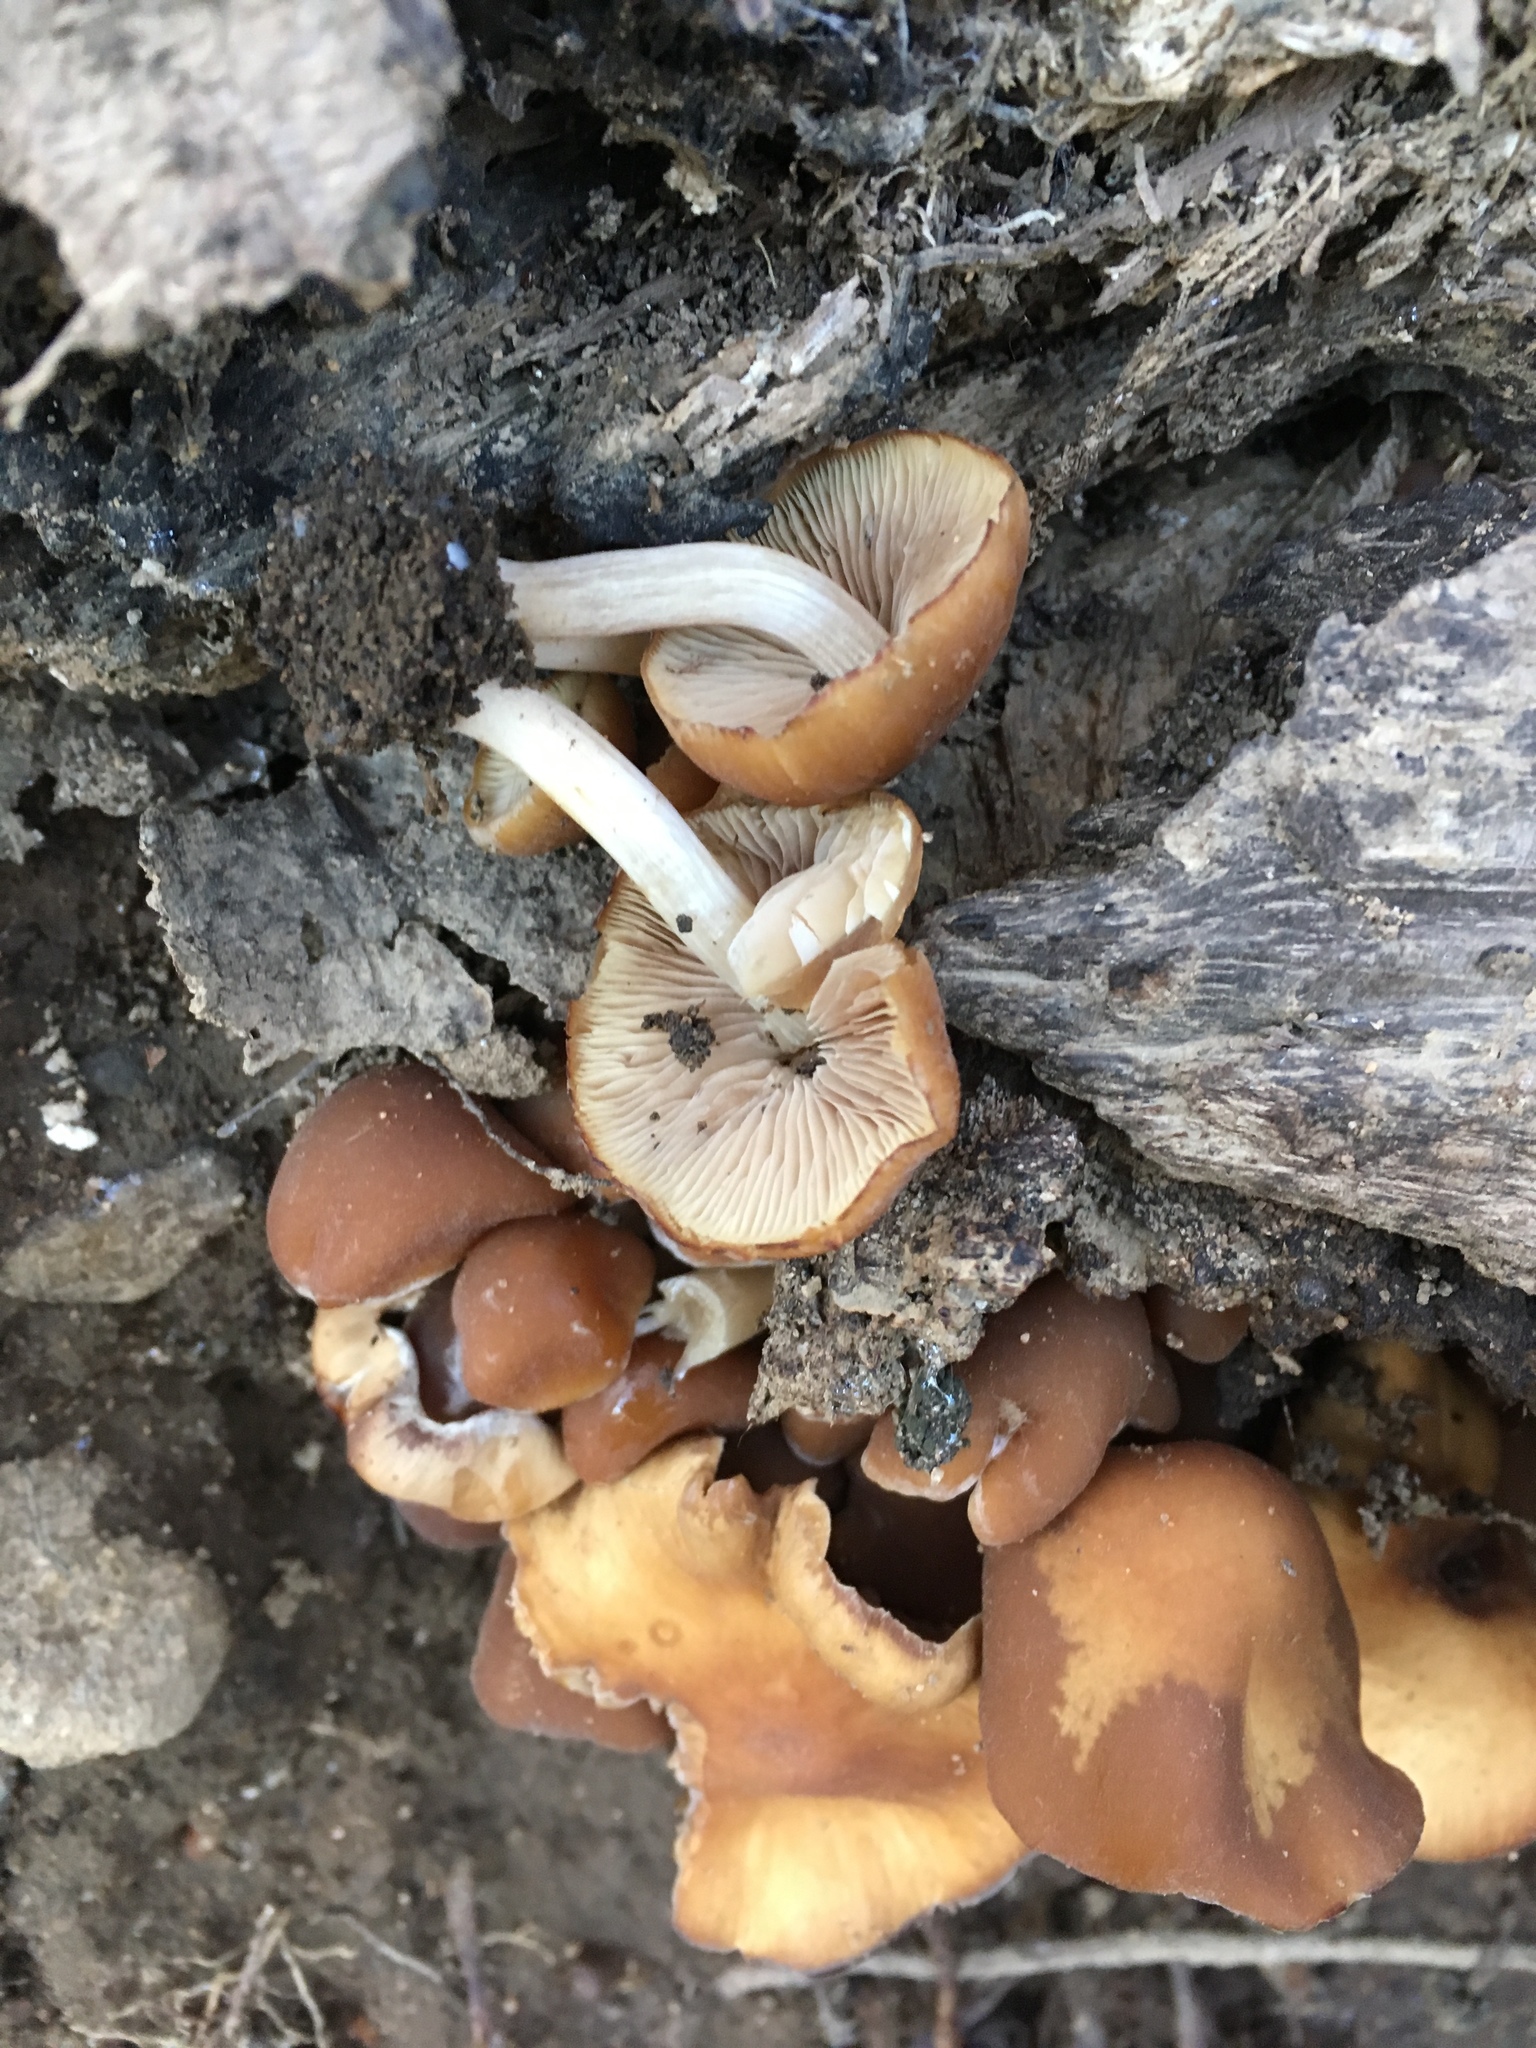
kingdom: Fungi
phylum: Basidiomycota
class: Agaricomycetes
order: Agaricales
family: Psathyrellaceae
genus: Psathyrella
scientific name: Psathyrella piluliformis
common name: Common stump brittlestem
